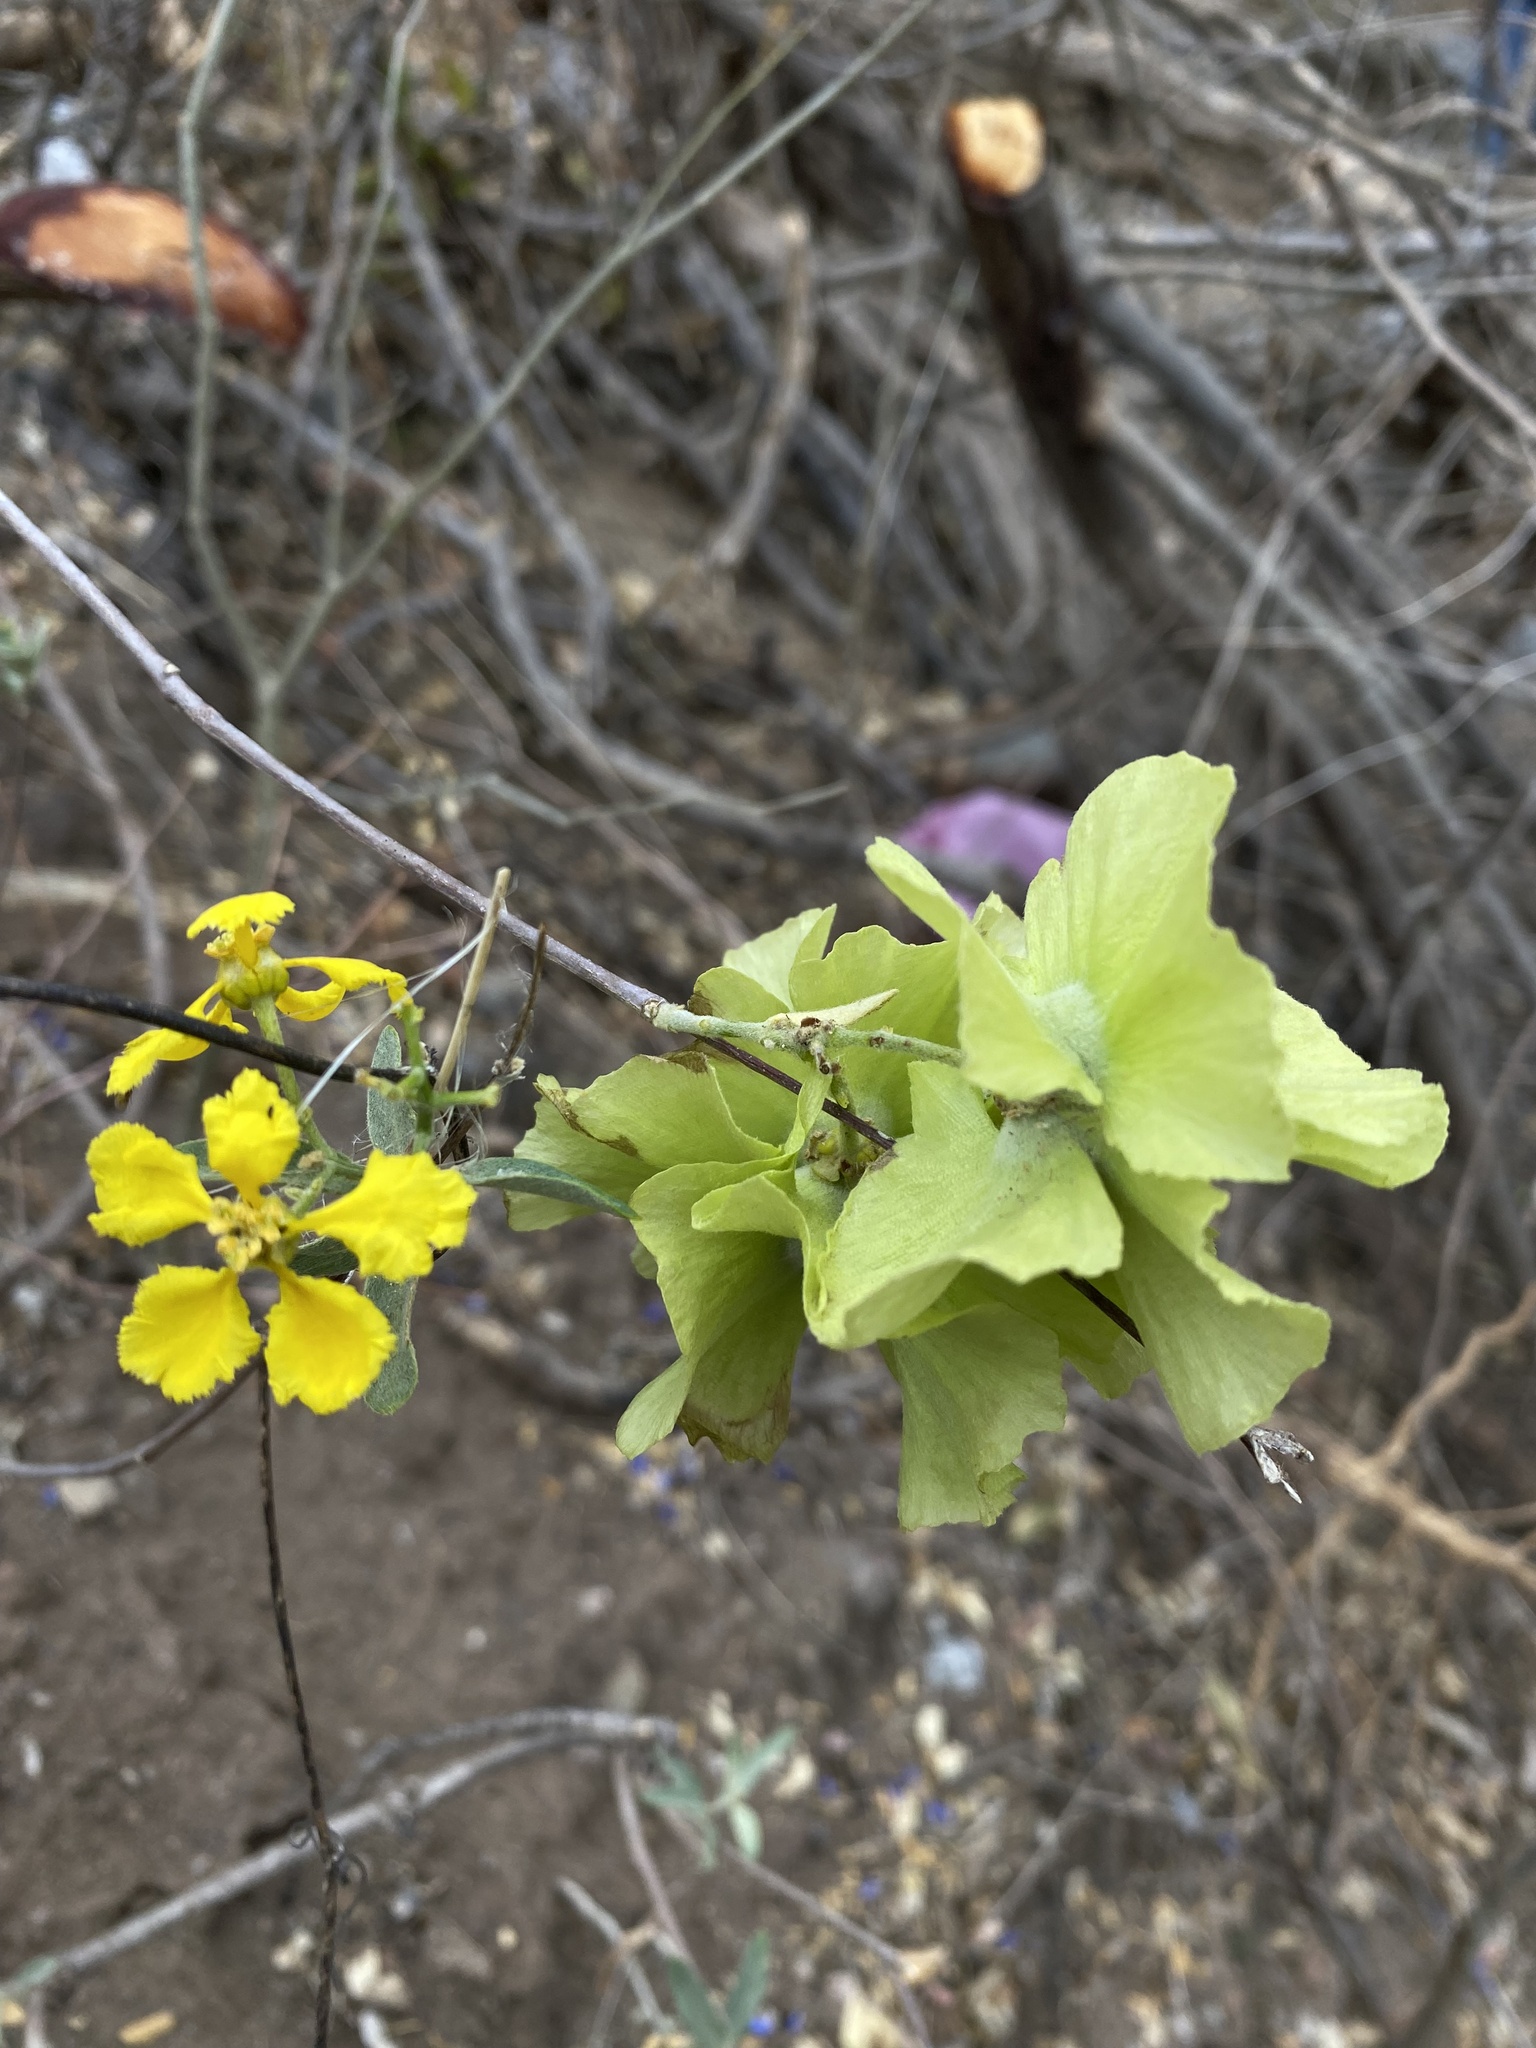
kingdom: Plantae
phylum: Tracheophyta
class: Magnoliopsida
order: Malpighiales
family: Malpighiaceae
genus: Callaeum
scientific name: Callaeum macropterum
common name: Mexican butterfly-vine
